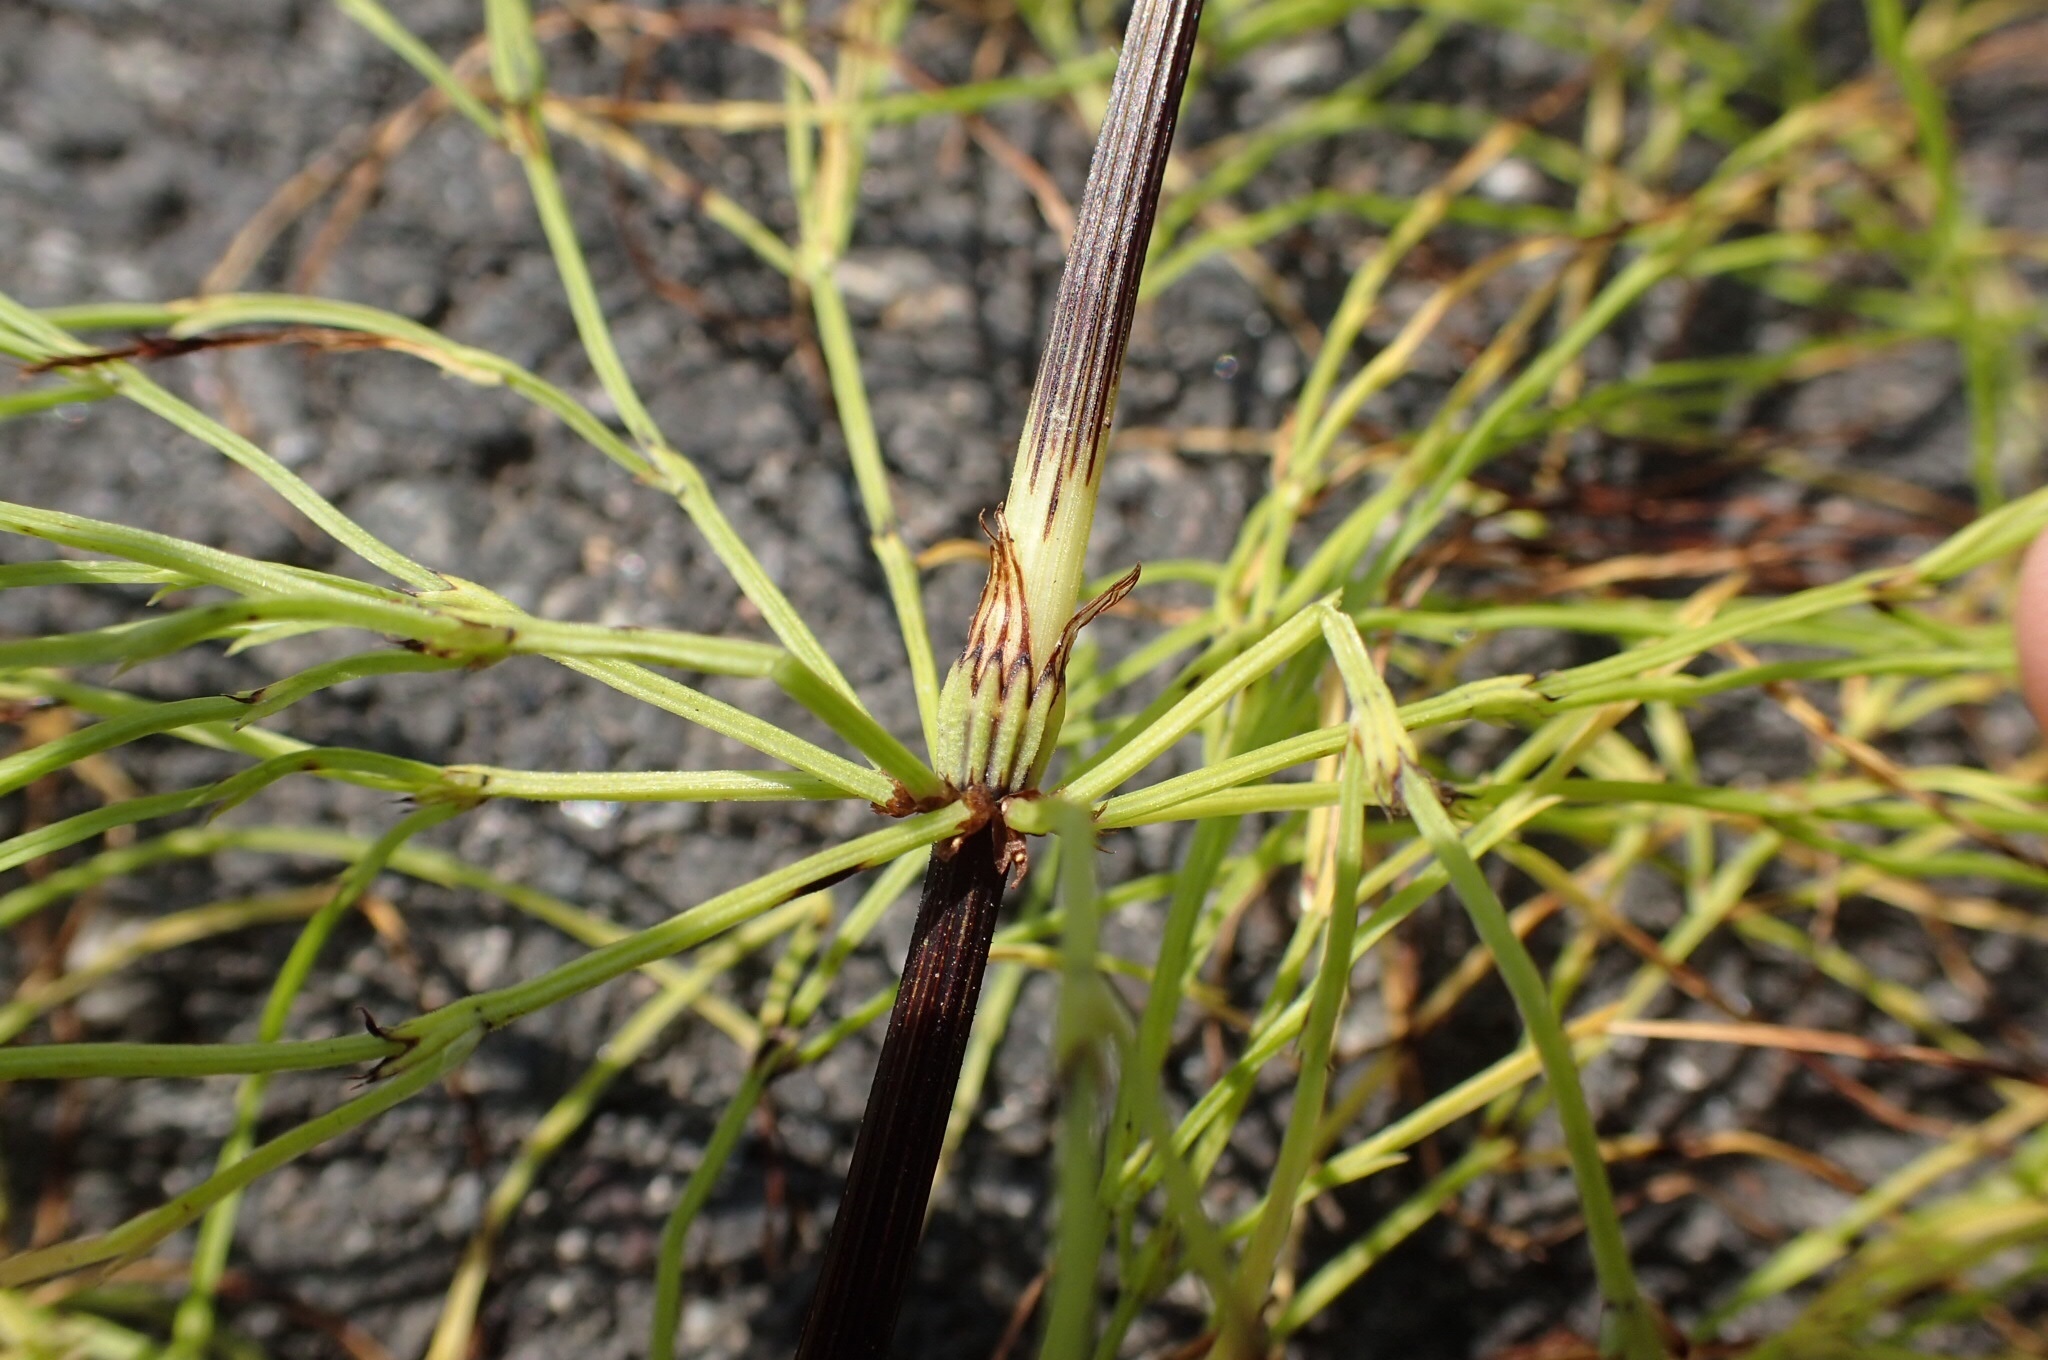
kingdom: Plantae
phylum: Tracheophyta
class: Polypodiopsida
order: Equisetales
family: Equisetaceae
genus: Equisetum
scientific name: Equisetum sylvaticum
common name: Wood horsetail
